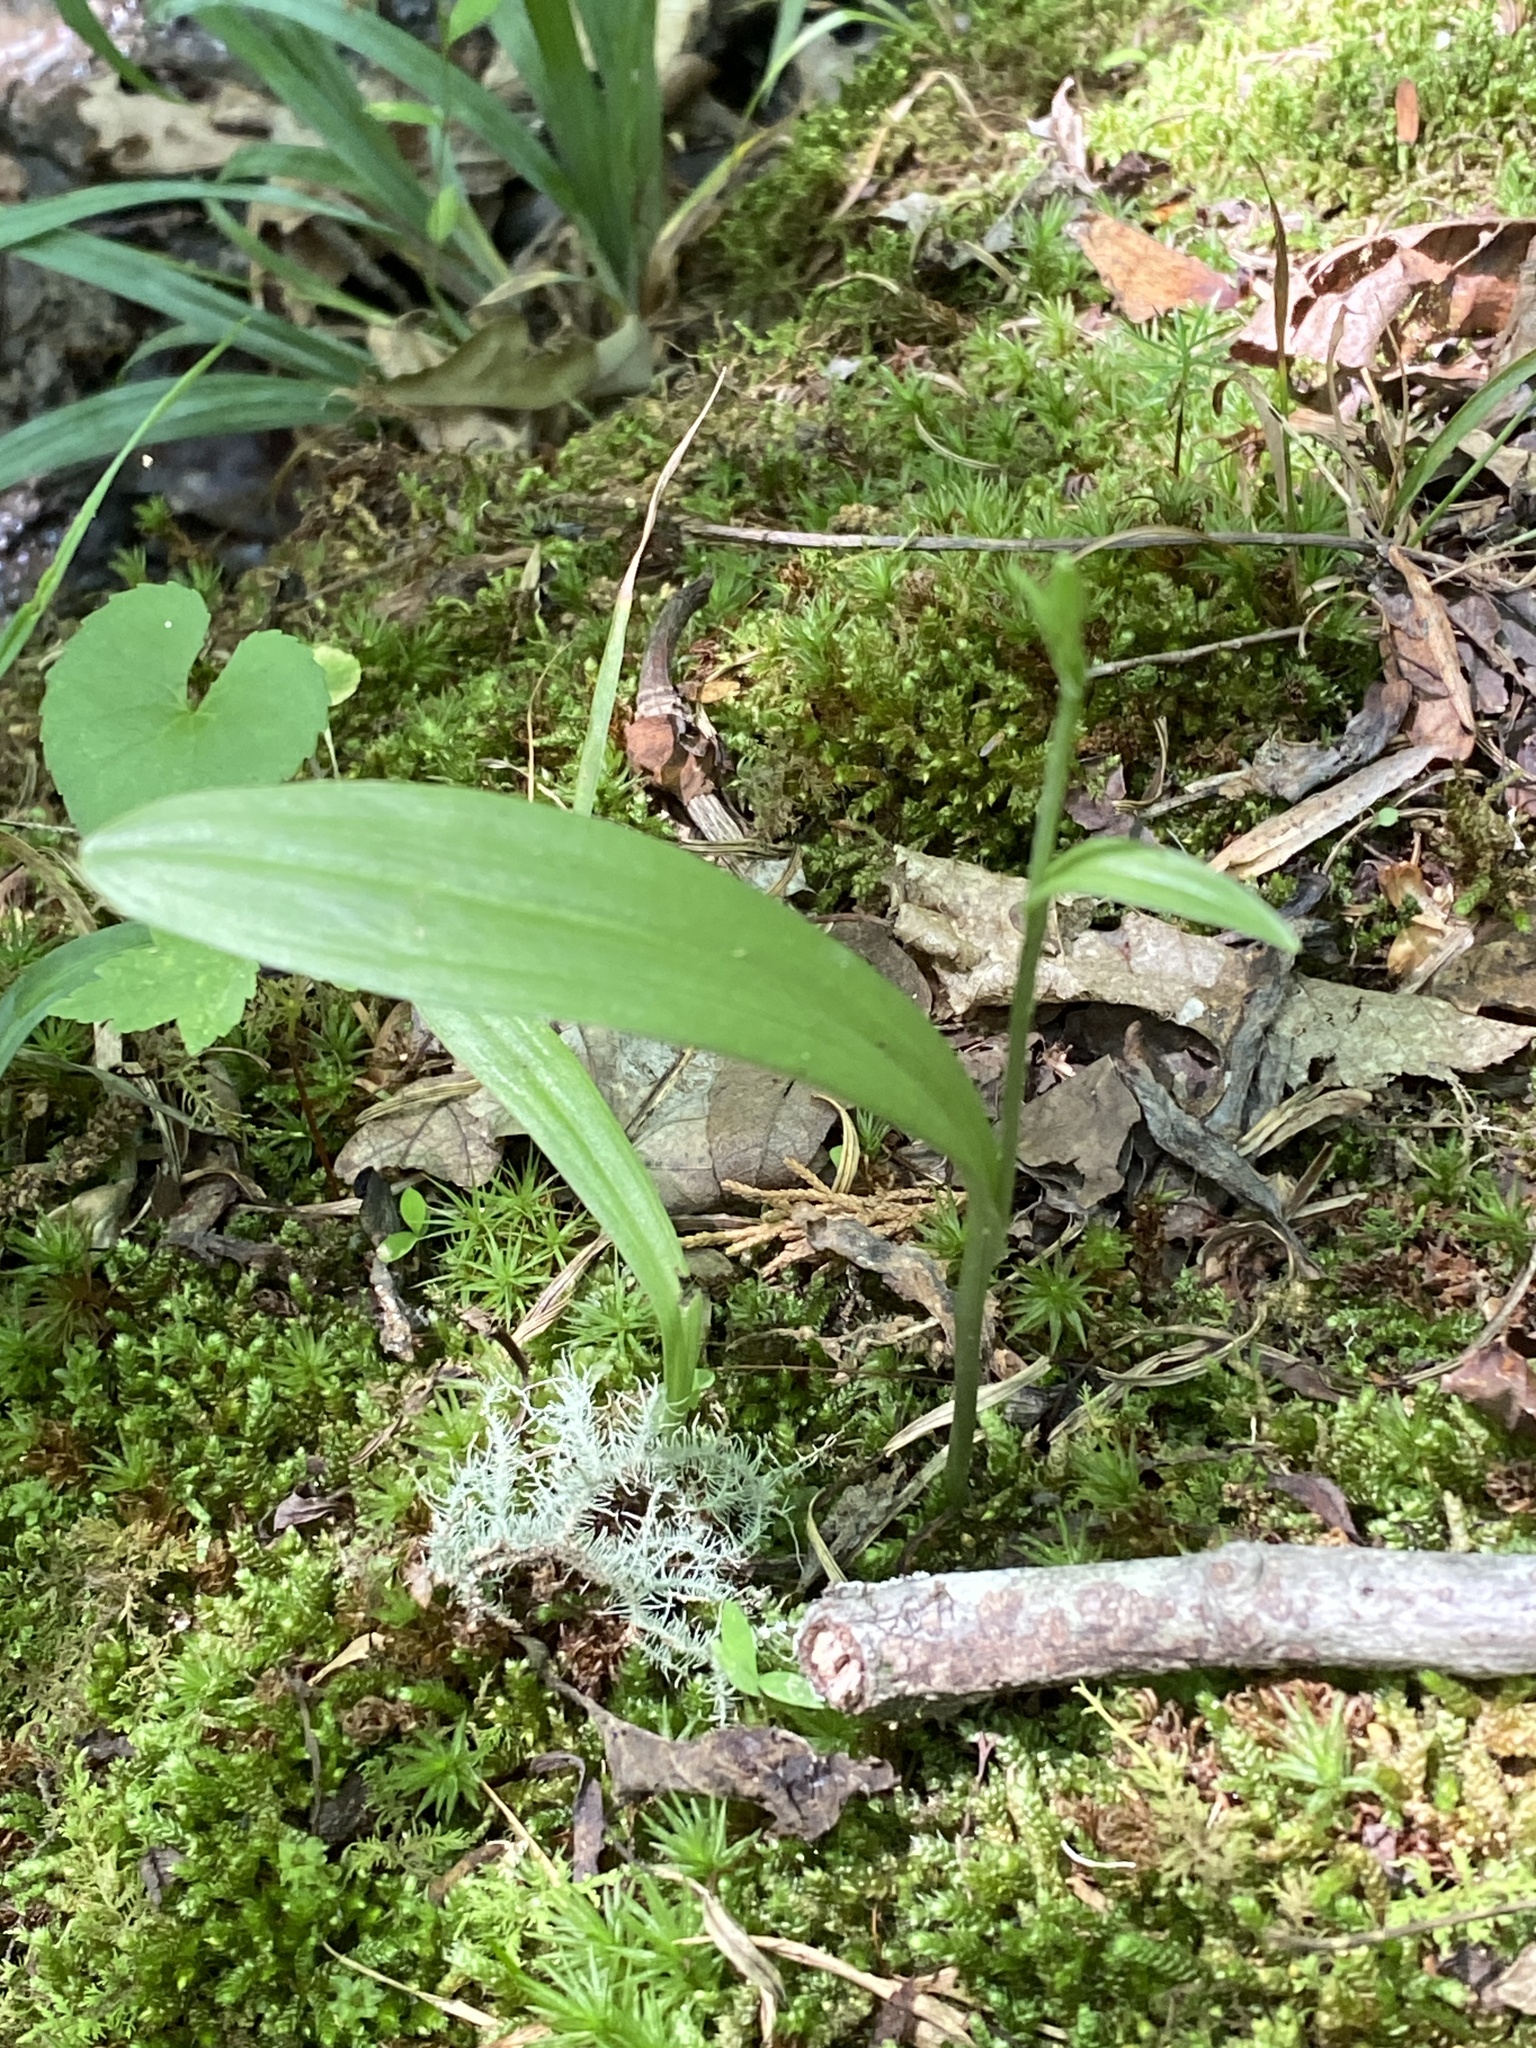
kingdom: Plantae
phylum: Tracheophyta
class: Liliopsida
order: Asparagales
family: Orchidaceae
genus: Platanthera
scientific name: Platanthera clavellata
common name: Club-spur orchid
